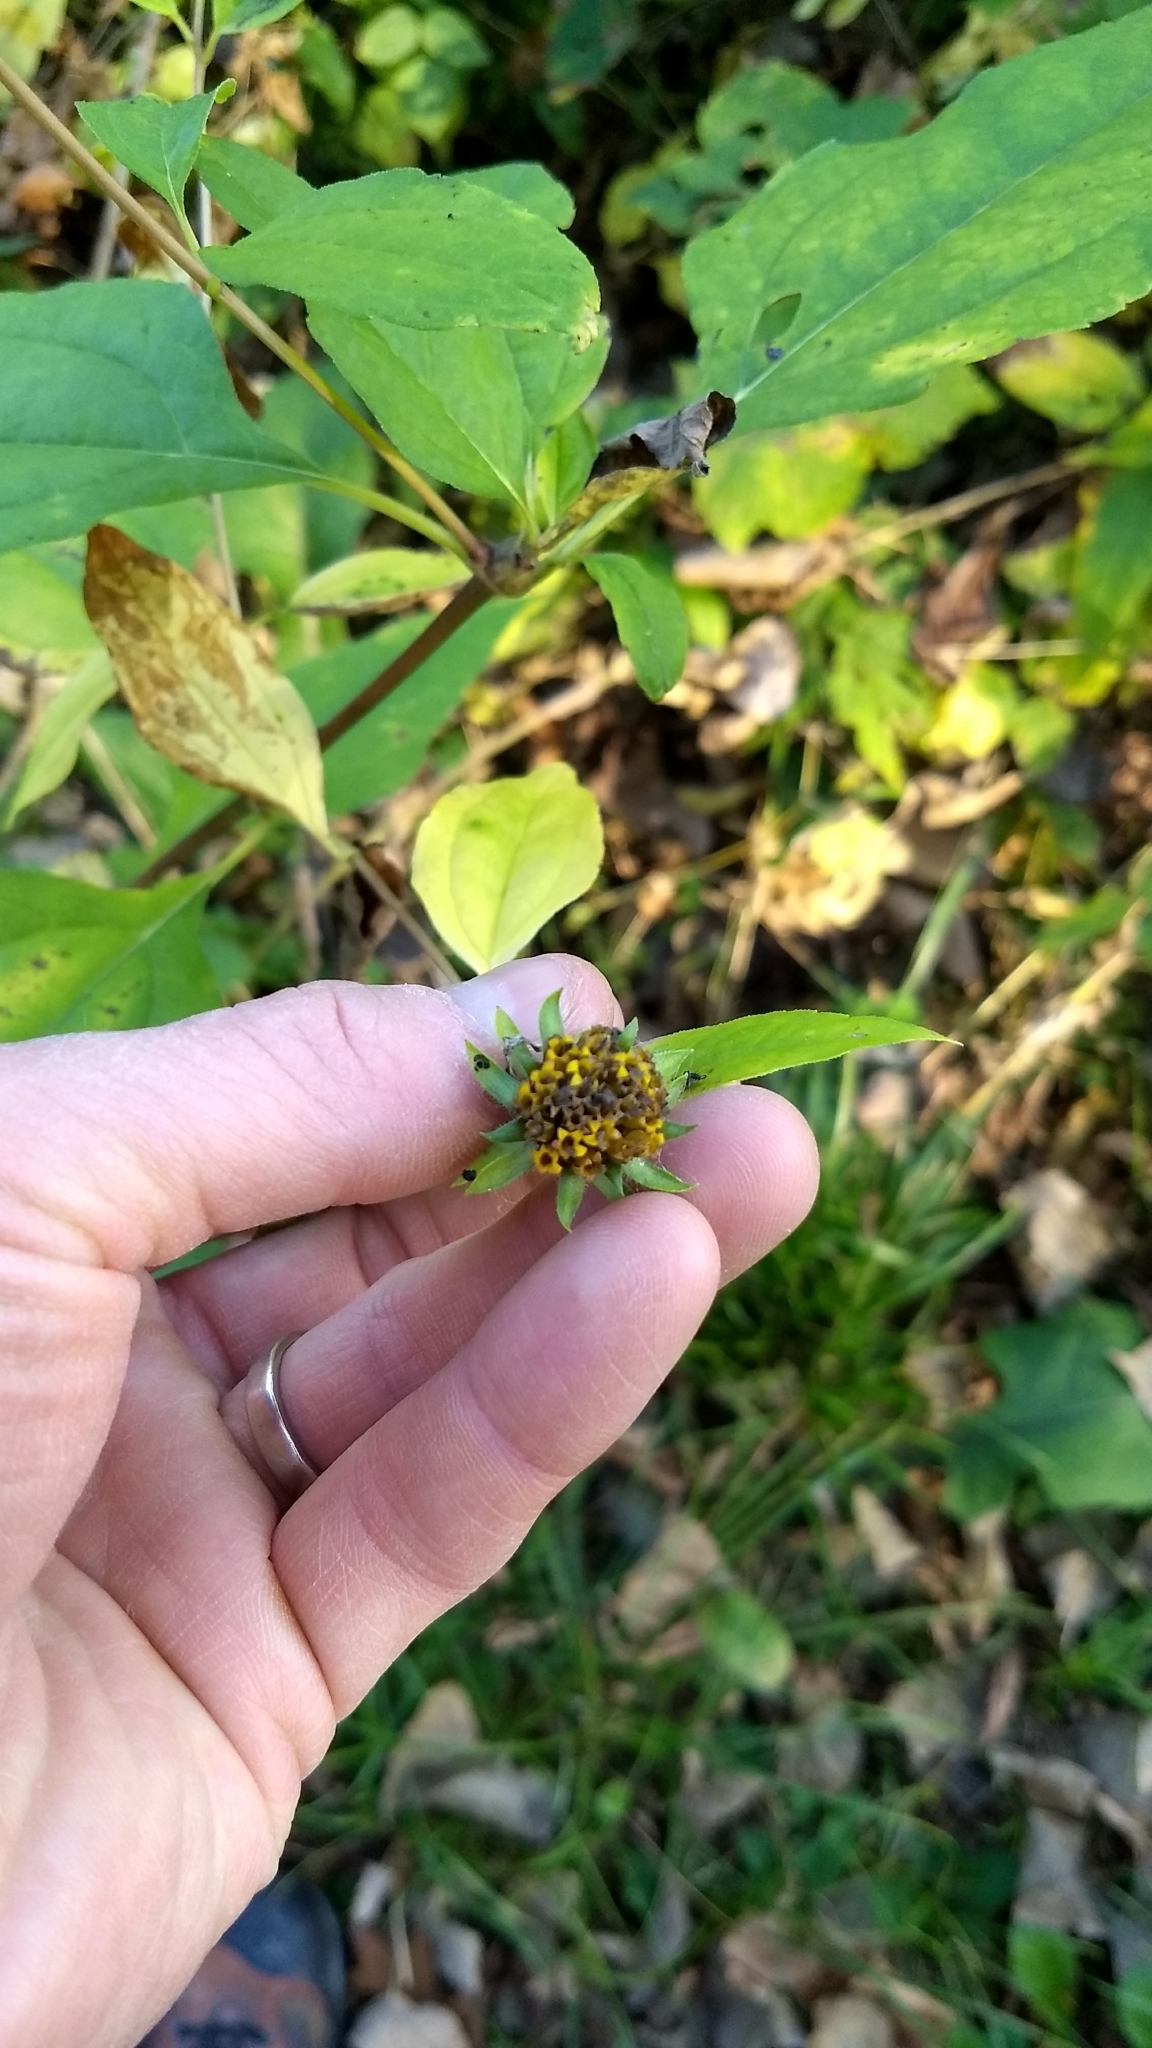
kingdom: Plantae
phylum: Tracheophyta
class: Magnoliopsida
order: Asterales
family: Asteraceae
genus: Bidens
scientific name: Bidens frondosa
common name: Beggarticks
